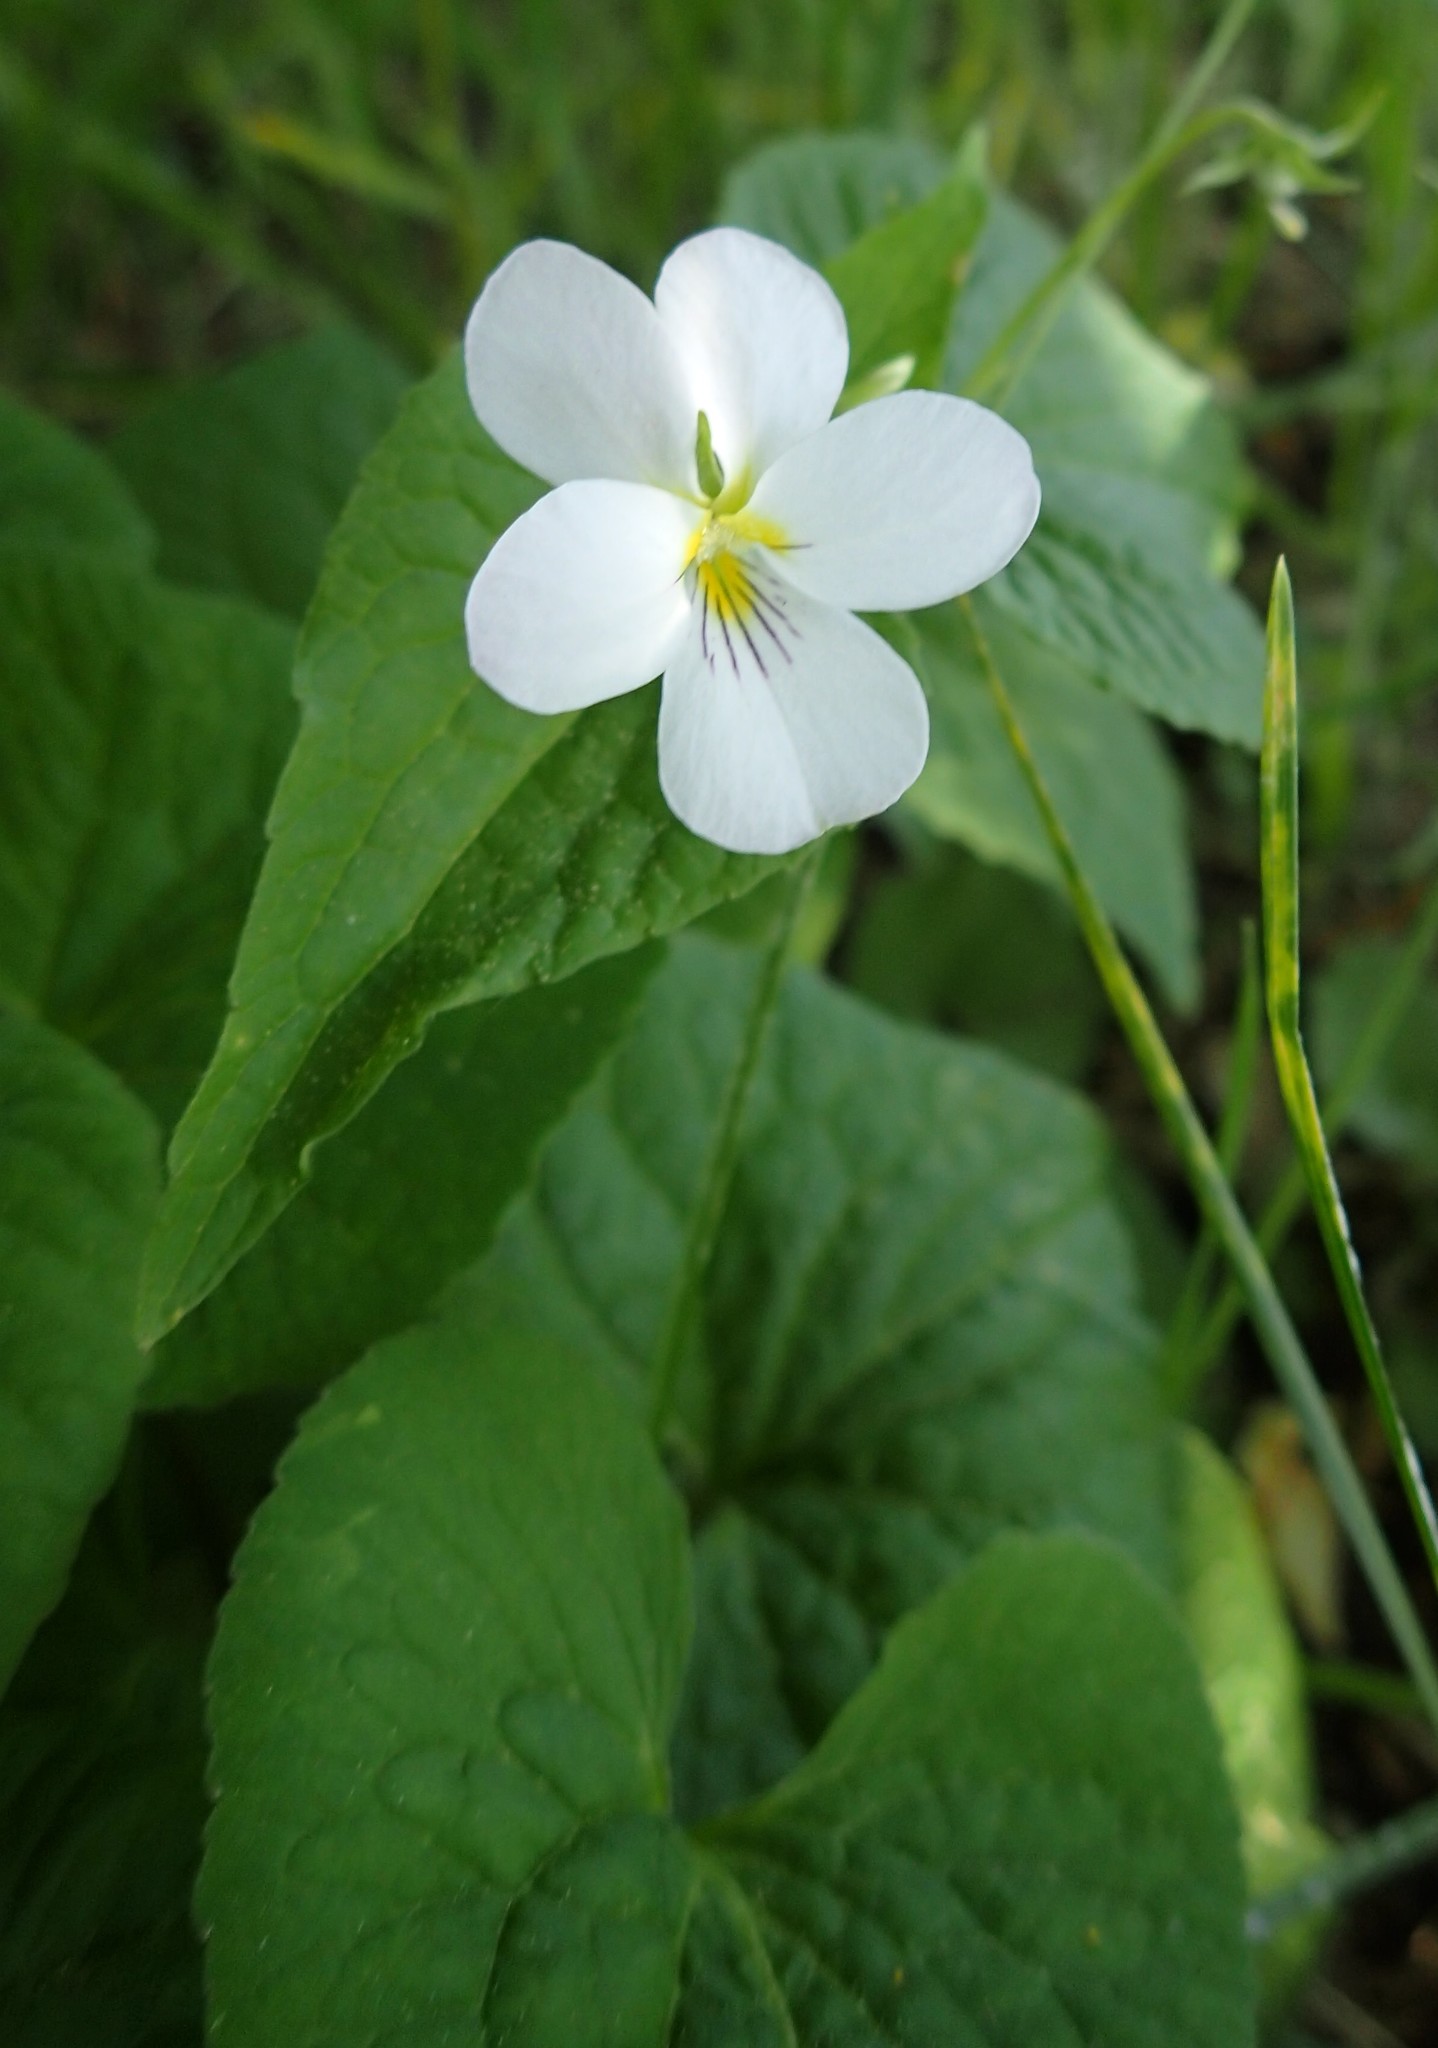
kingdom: Plantae
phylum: Tracheophyta
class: Magnoliopsida
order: Malpighiales
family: Violaceae
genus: Viola
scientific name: Viola canadensis
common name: Canada violet
